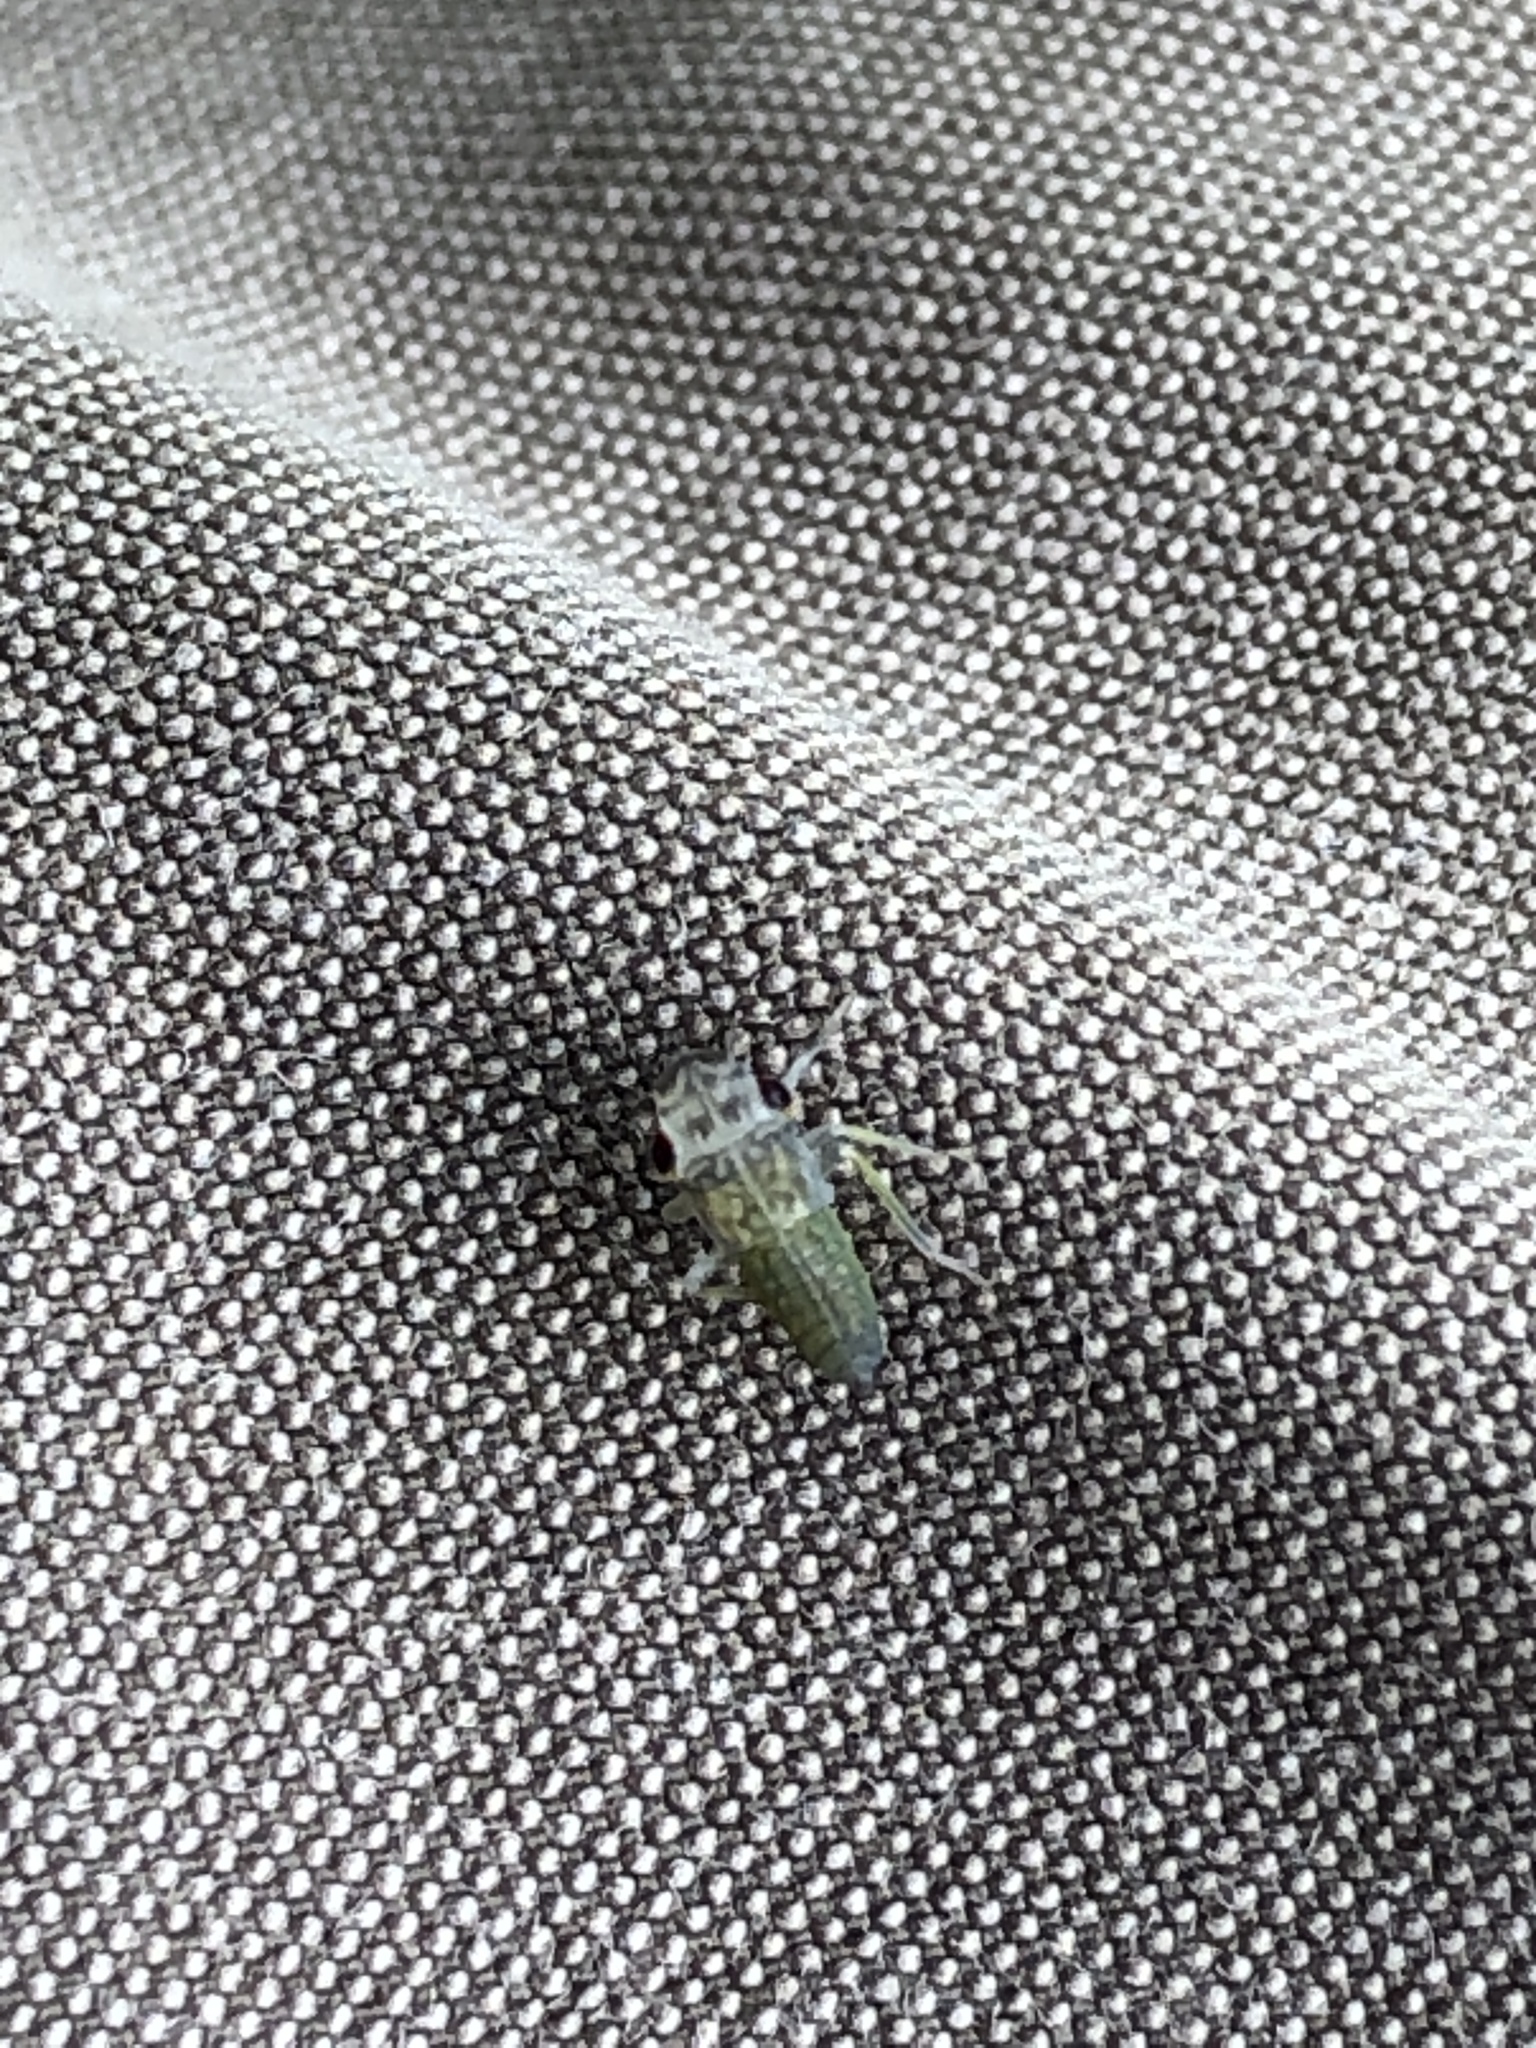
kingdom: Animalia
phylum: Arthropoda
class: Insecta
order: Hemiptera
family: Cicadellidae
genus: Oncometopia
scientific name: Oncometopia orbona
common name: Broad-headed sharpshooter
